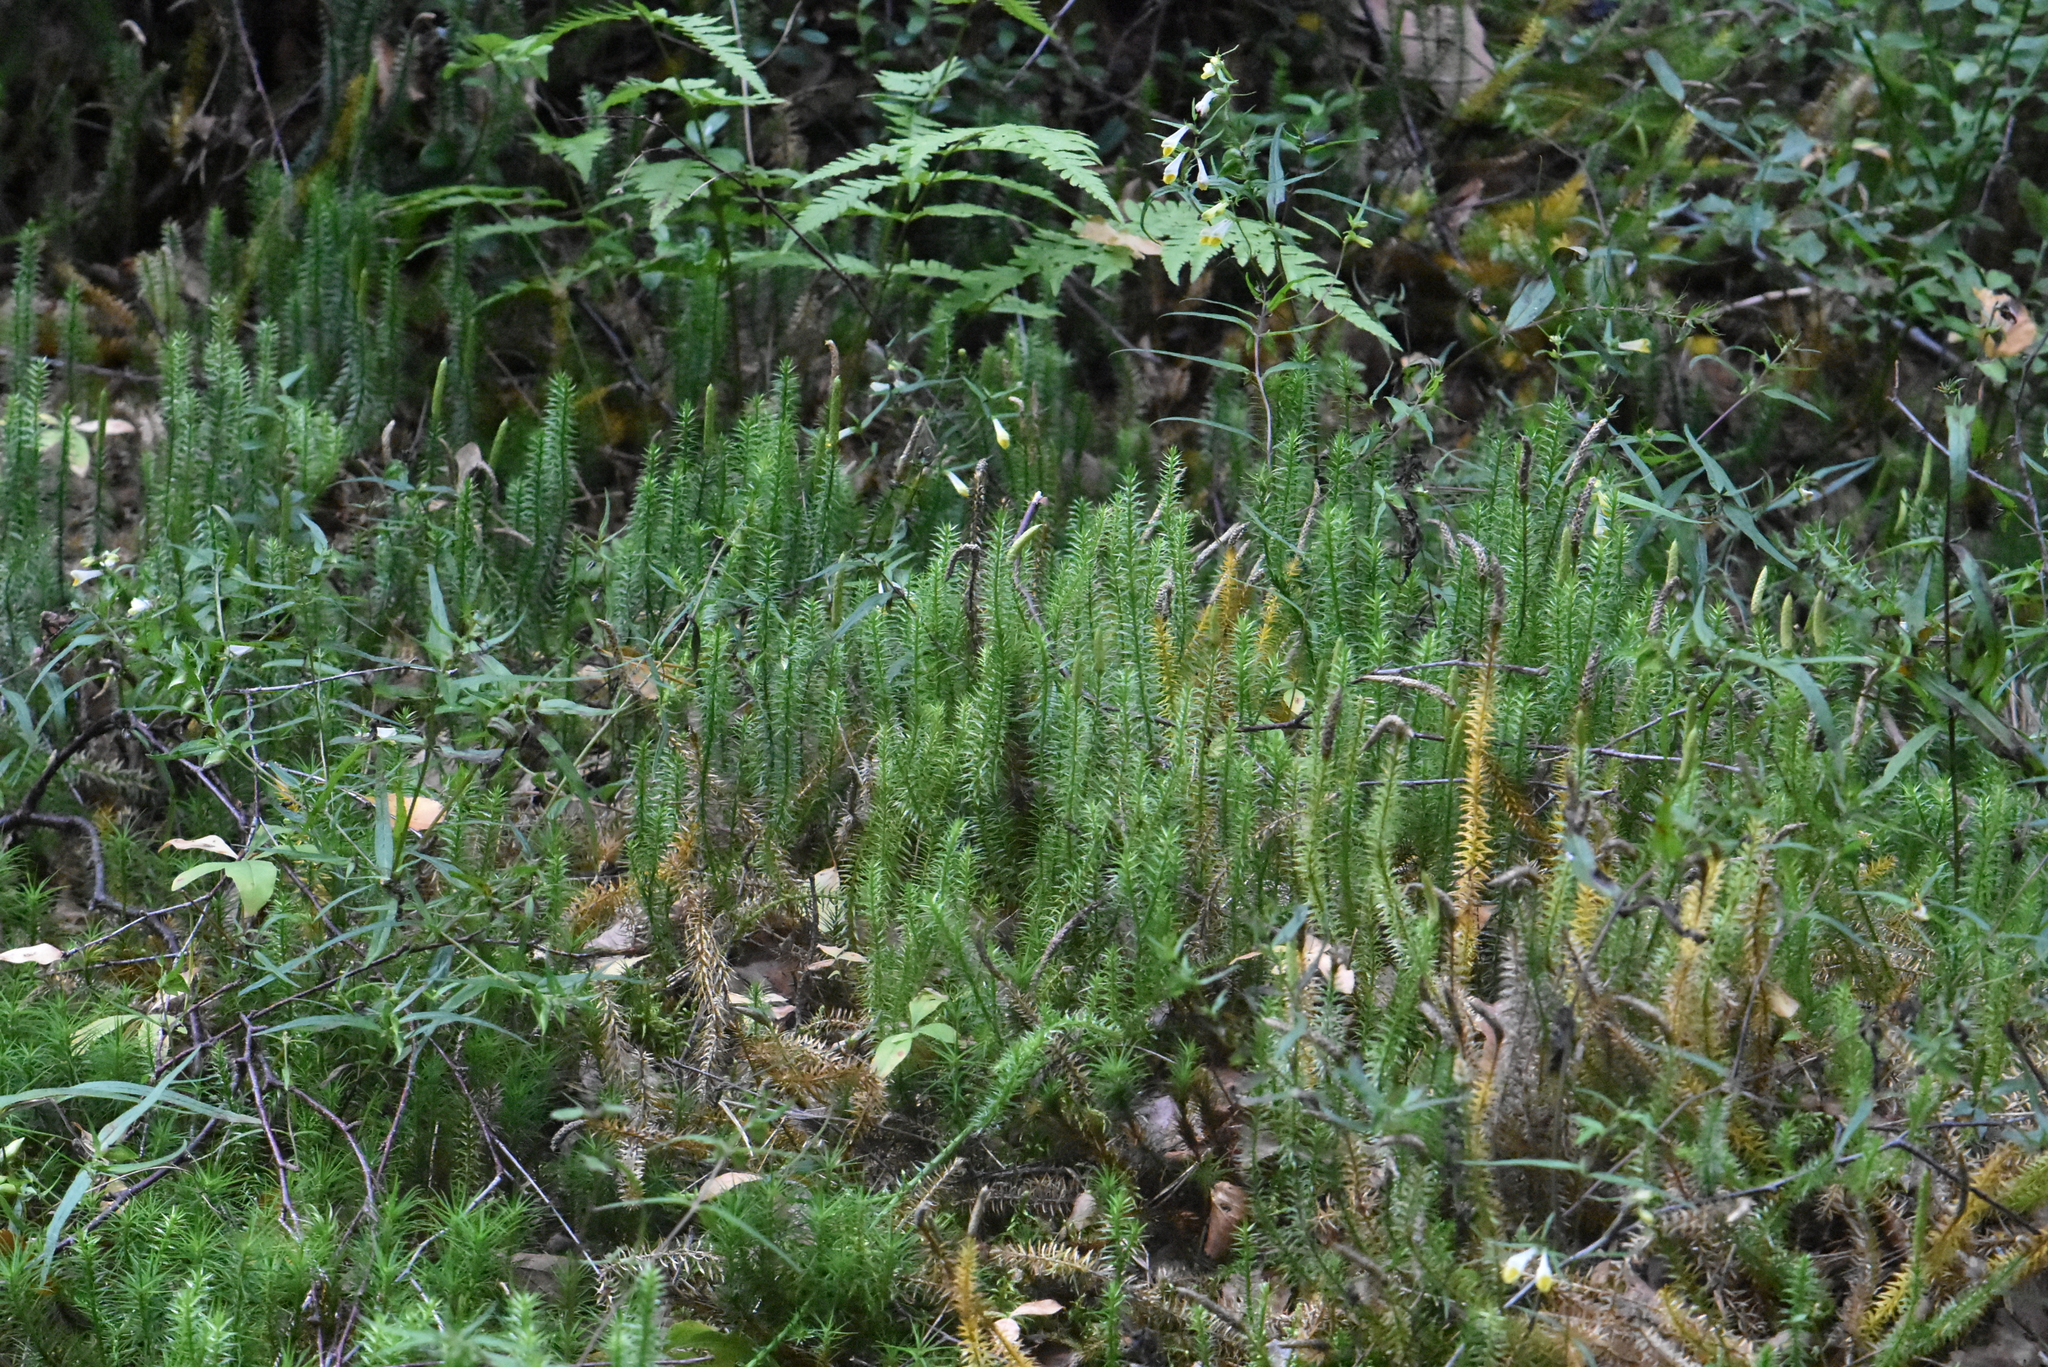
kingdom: Plantae
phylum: Tracheophyta
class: Lycopodiopsida
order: Lycopodiales
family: Lycopodiaceae
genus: Spinulum
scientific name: Spinulum annotinum
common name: Interrupted club-moss
